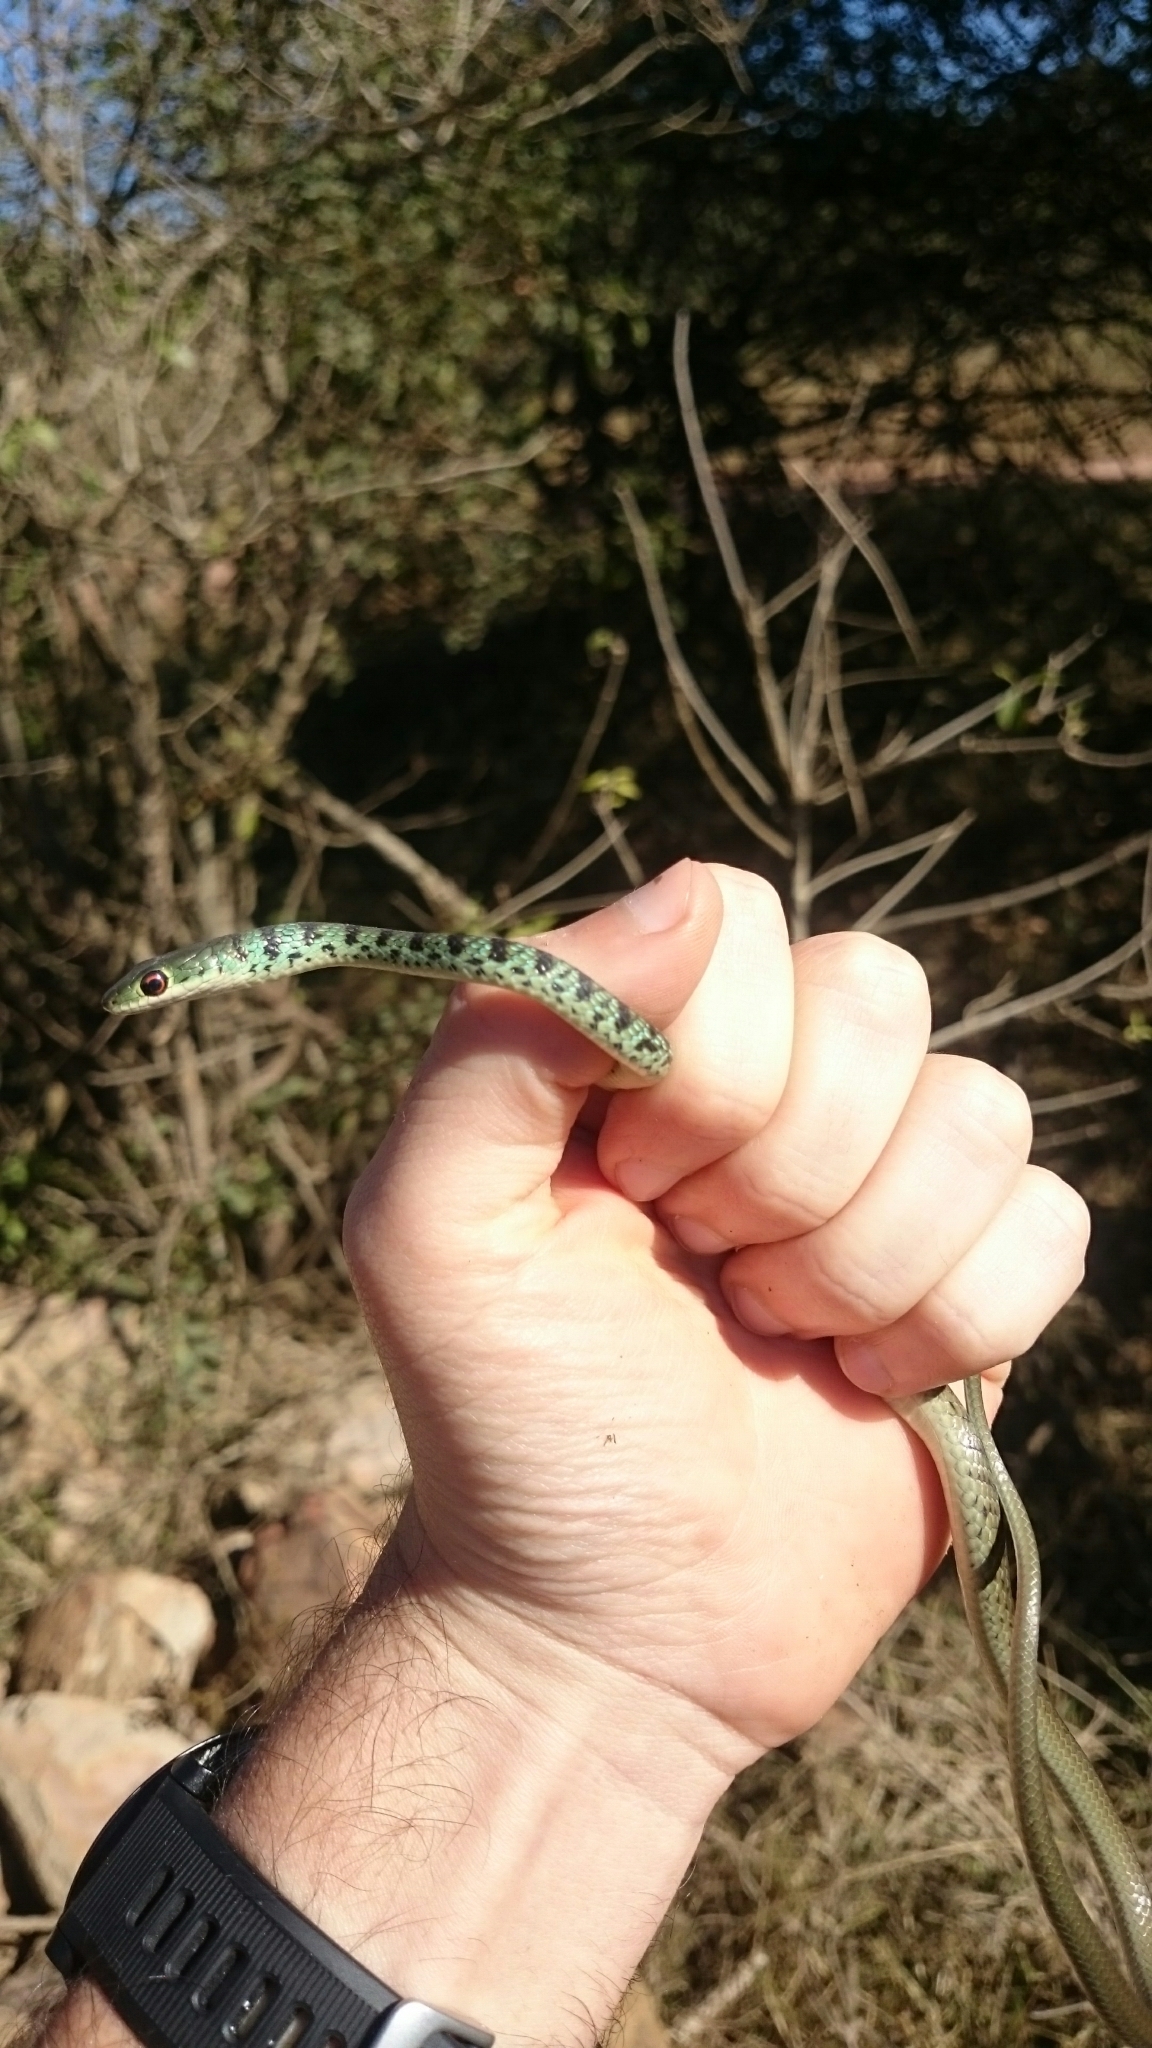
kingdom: Animalia
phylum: Chordata
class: Squamata
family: Colubridae
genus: Philothamnus
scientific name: Philothamnus semivariegatus
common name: Spotted bush snake
